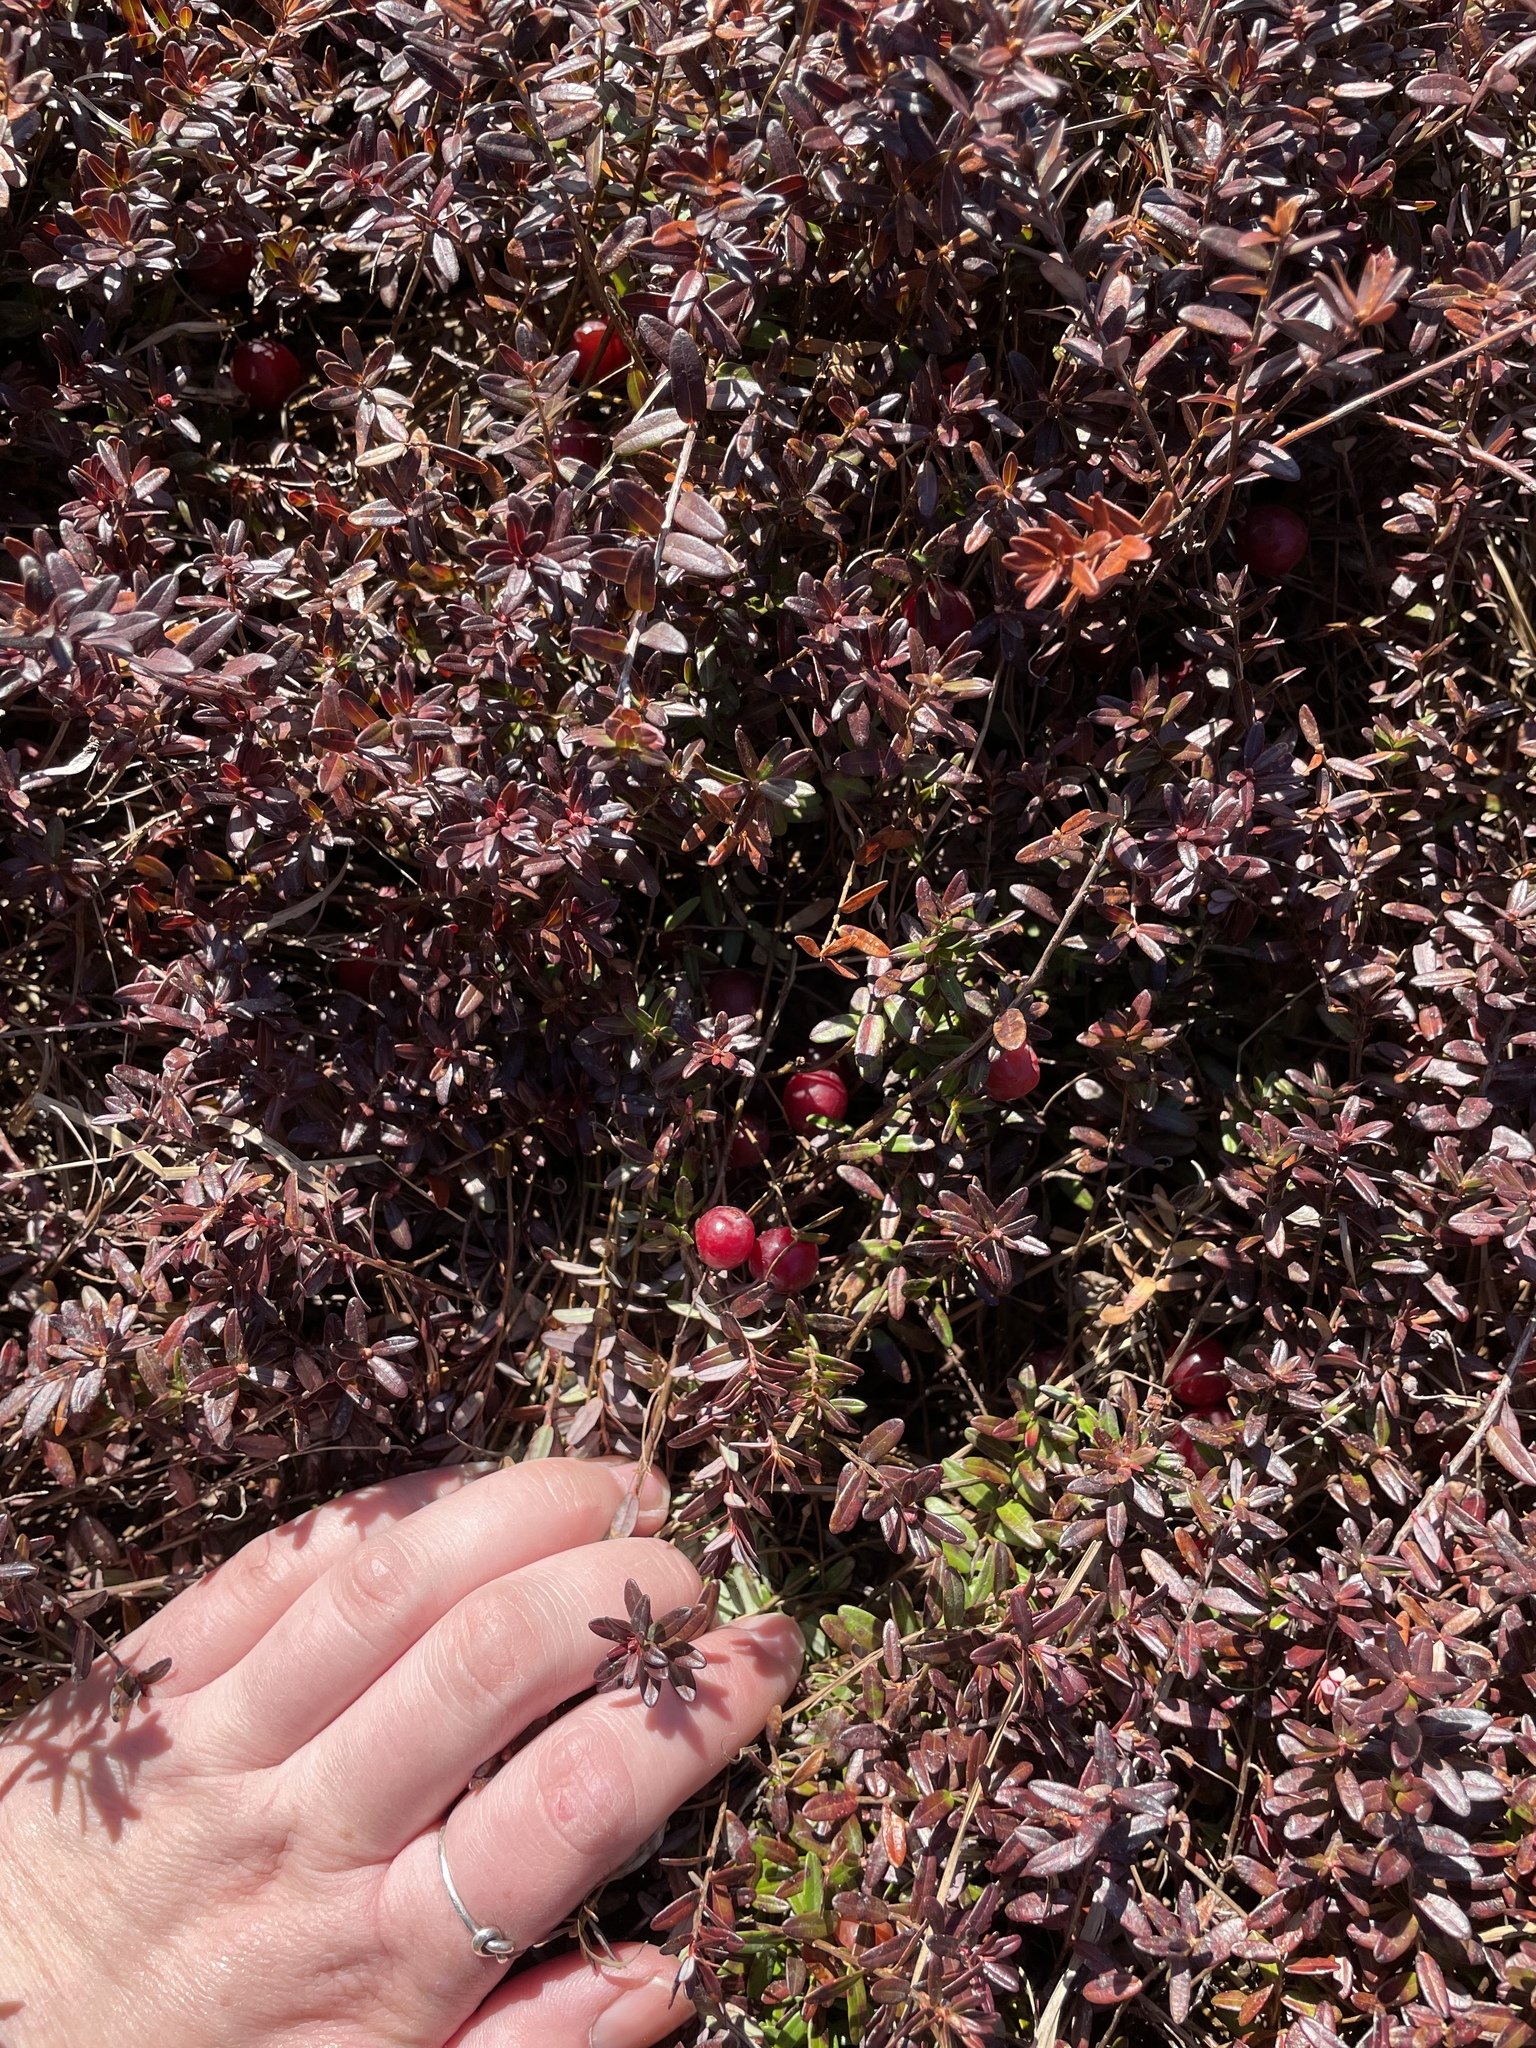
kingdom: Plantae
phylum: Tracheophyta
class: Magnoliopsida
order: Ericales
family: Ericaceae
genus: Vaccinium
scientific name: Vaccinium macrocarpon
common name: American cranberry
